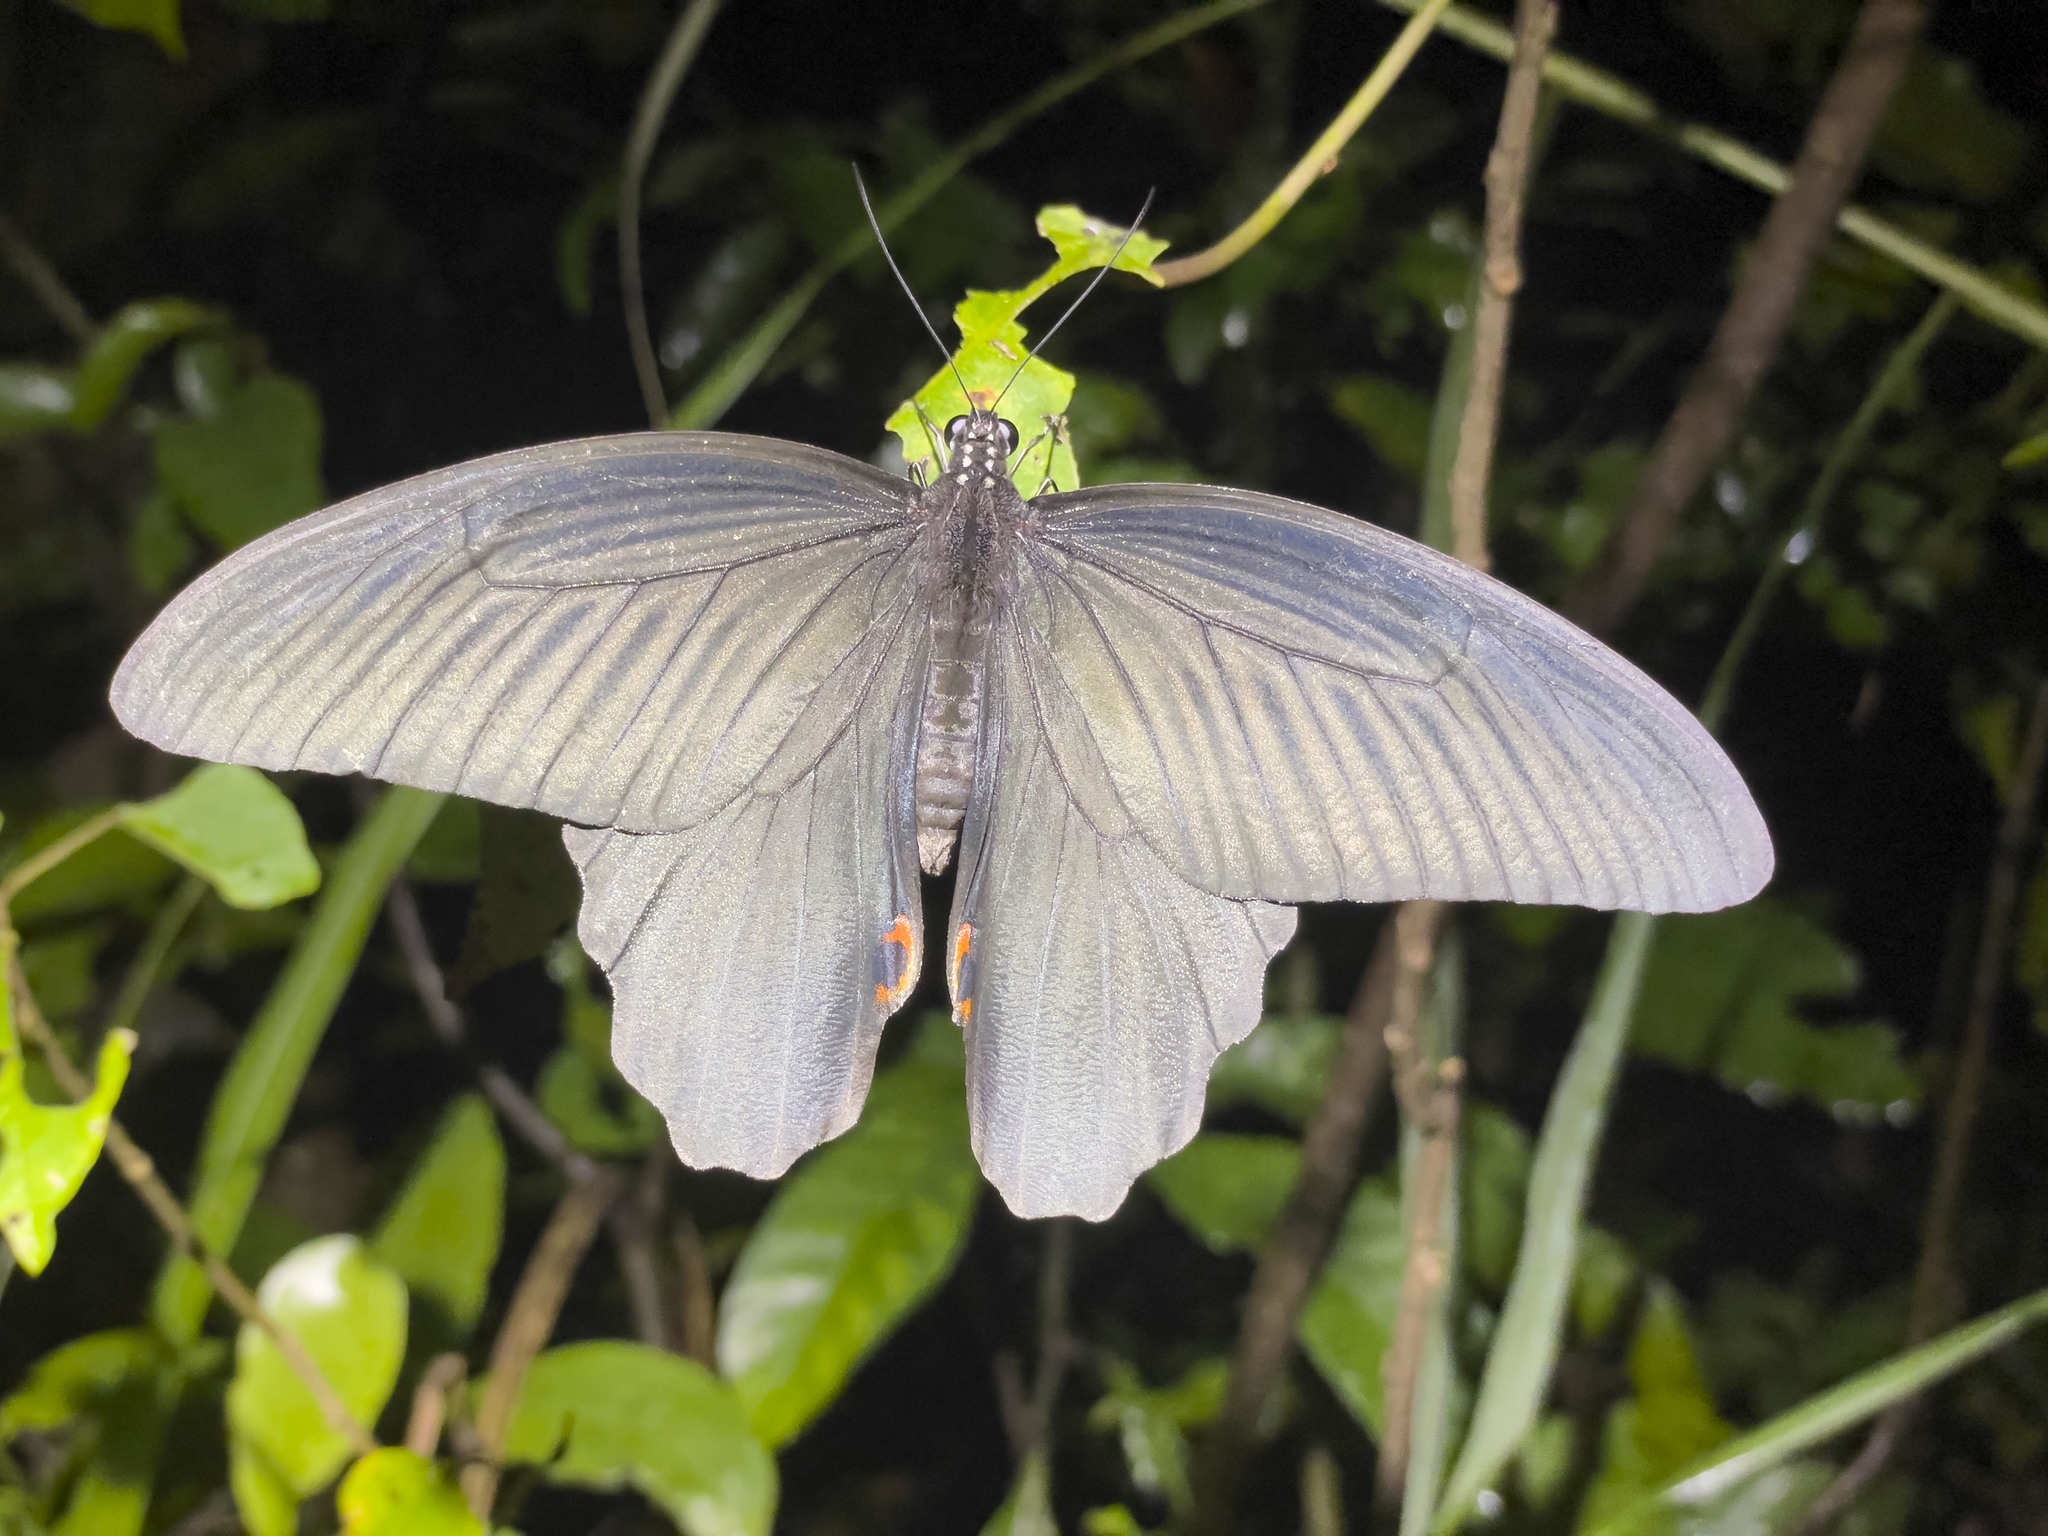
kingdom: Animalia
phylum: Arthropoda
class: Insecta
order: Lepidoptera
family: Papilionidae
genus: Papilio
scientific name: Papilio protenor
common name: Spangle
